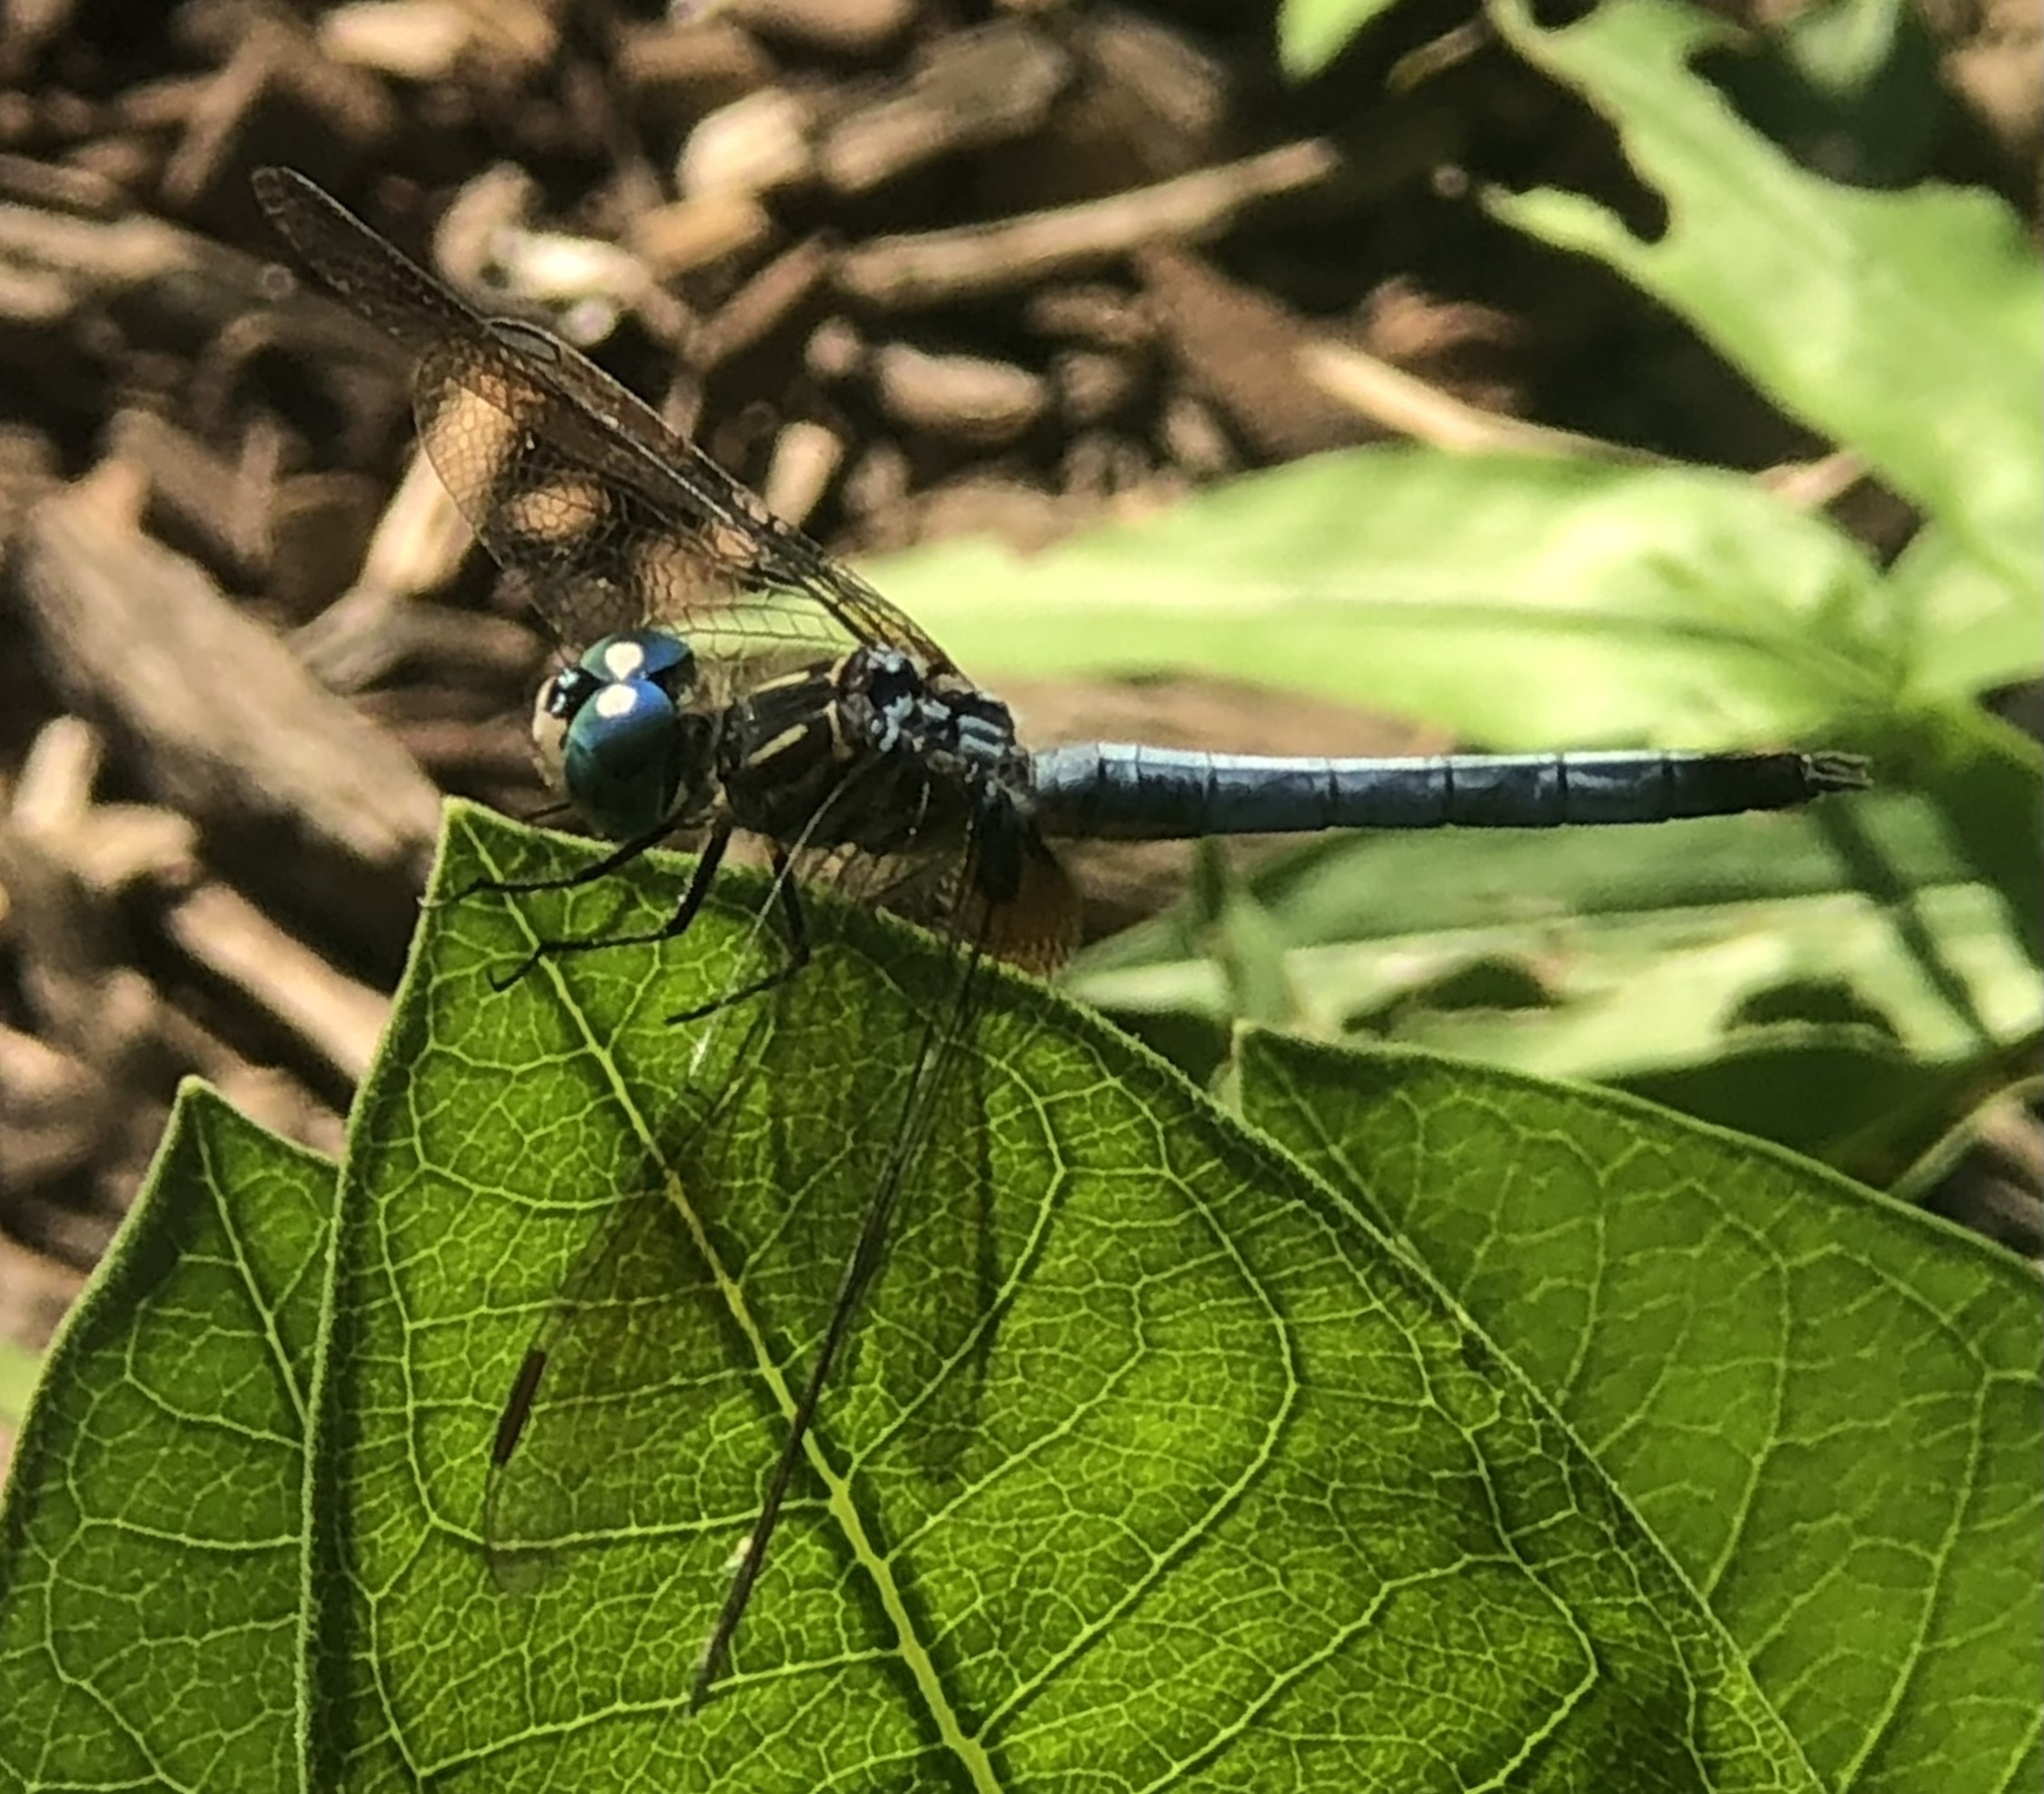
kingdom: Animalia
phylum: Arthropoda
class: Insecta
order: Odonata
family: Libellulidae
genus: Pachydiplax
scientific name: Pachydiplax longipennis
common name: Blue dasher
